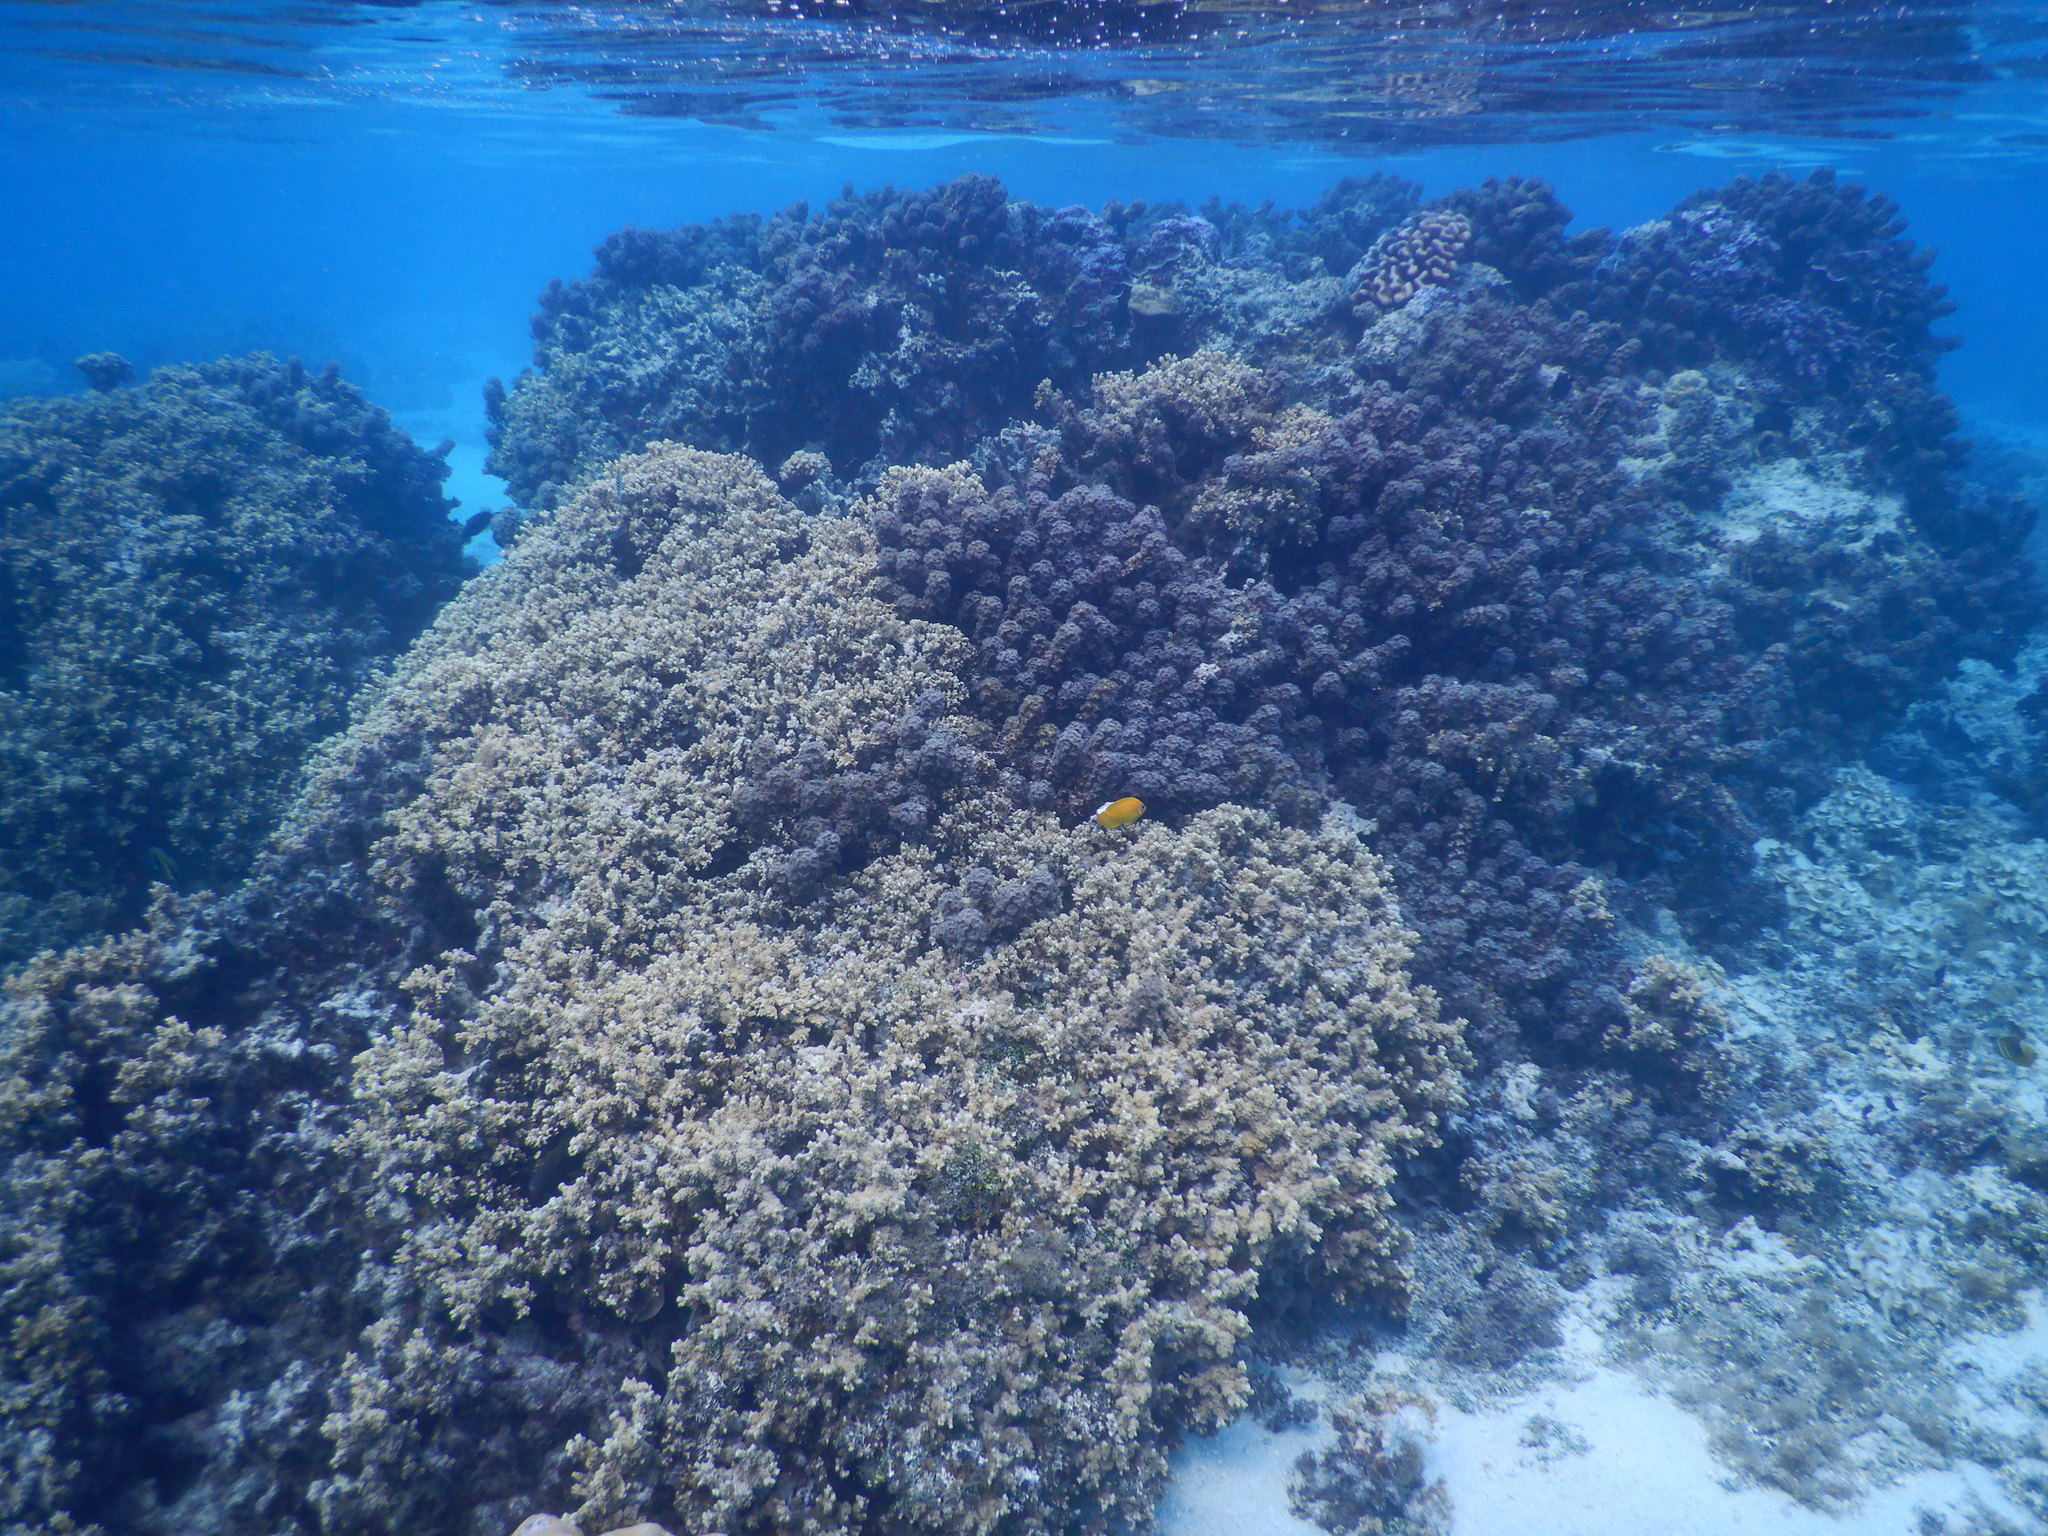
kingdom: Animalia
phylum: Chordata
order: Perciformes
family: Pomacanthidae
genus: Centropyge
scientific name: Centropyge flavissima
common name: Lemonpeel angelfish
